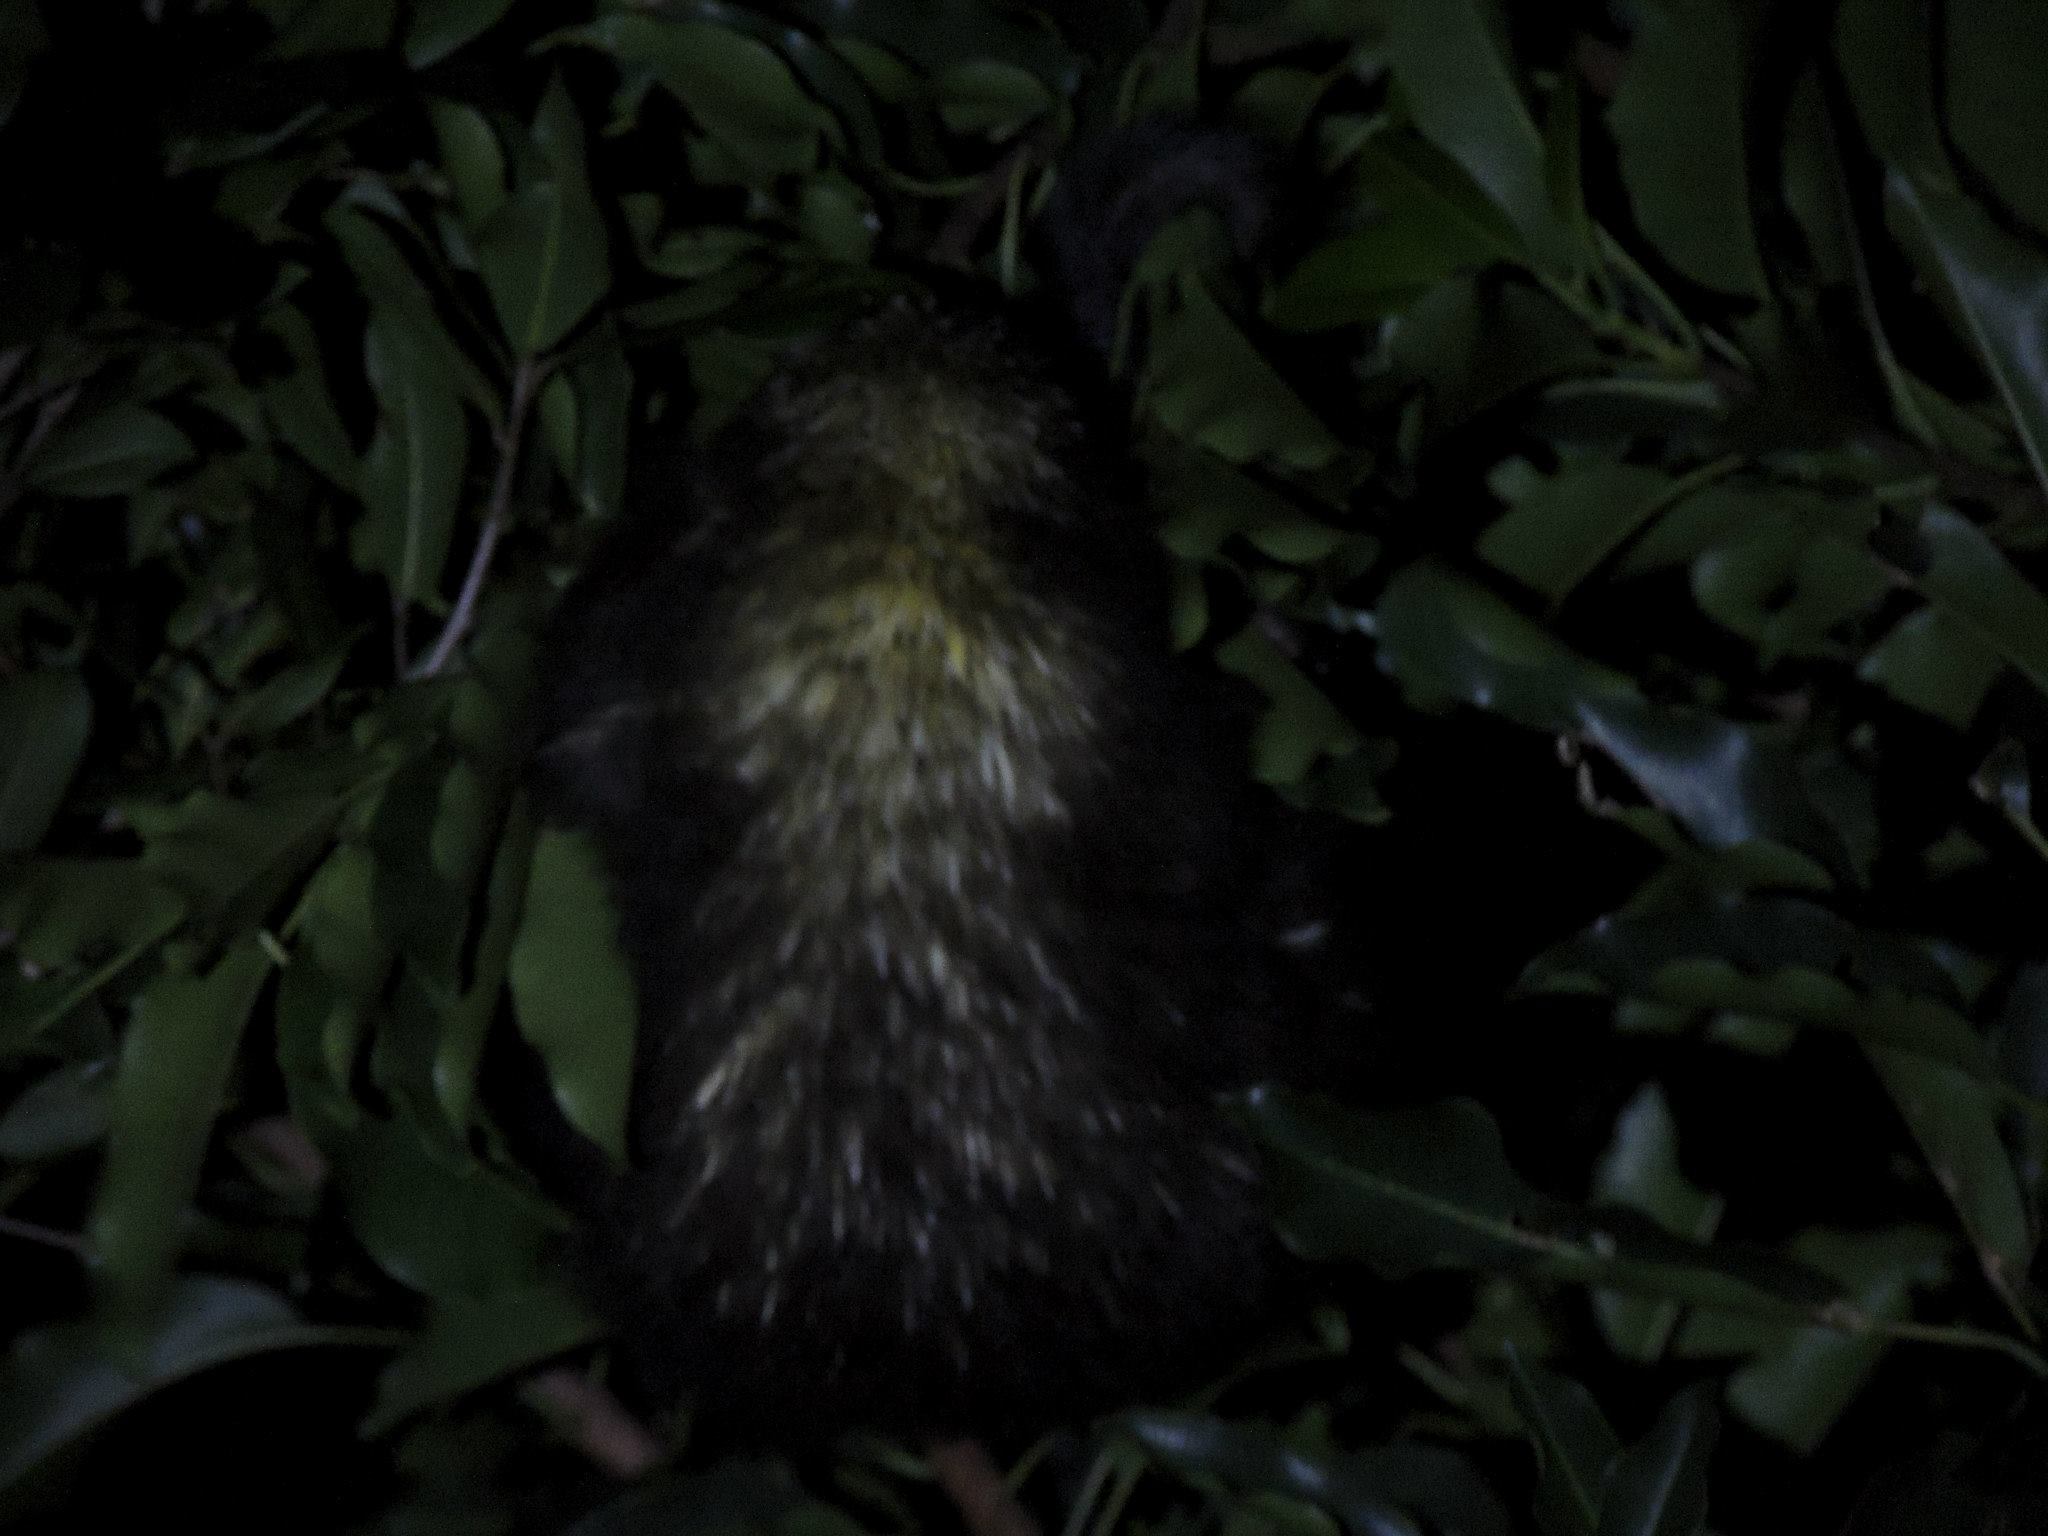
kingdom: Animalia
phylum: Chordata
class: Mammalia
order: Rodentia
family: Erethizontidae
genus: Sphiggurus
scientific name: Sphiggurus mexicanus
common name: Mexican hairy dwarf porcupine
